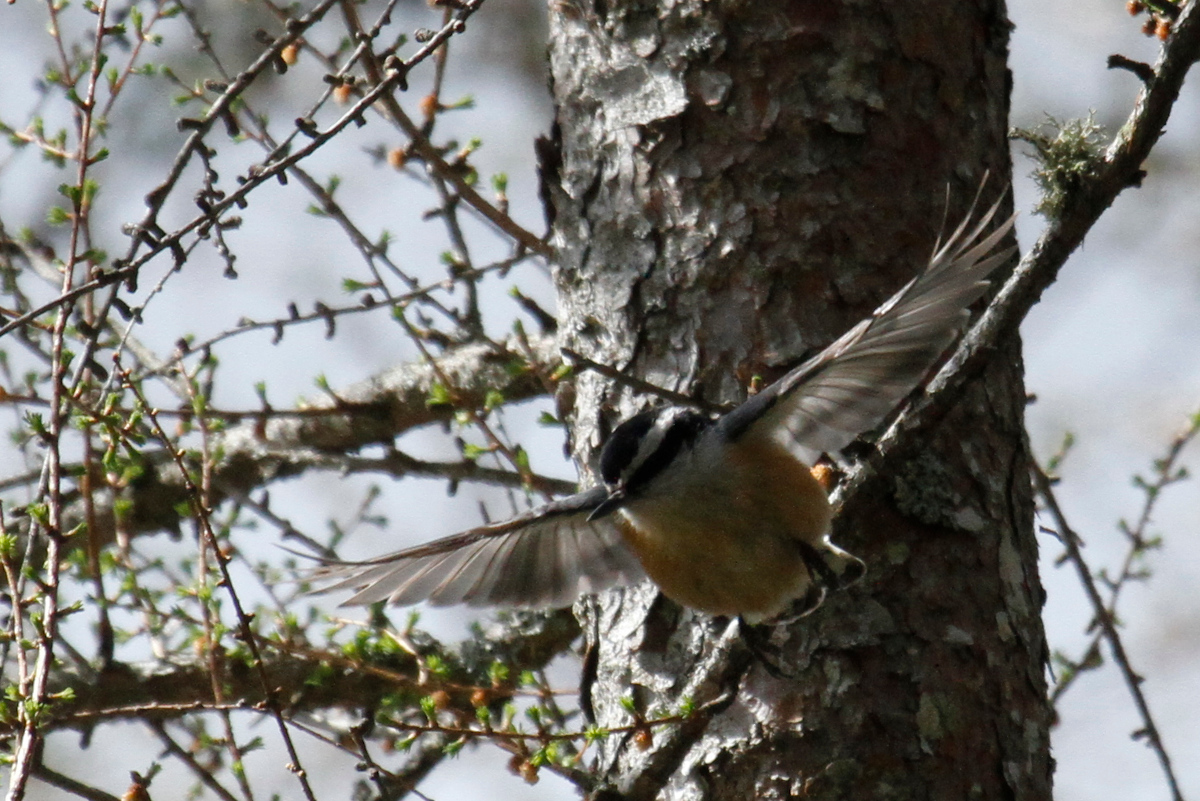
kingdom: Animalia
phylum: Chordata
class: Aves
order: Passeriformes
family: Sittidae
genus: Sitta
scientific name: Sitta canadensis
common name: Red-breasted nuthatch
